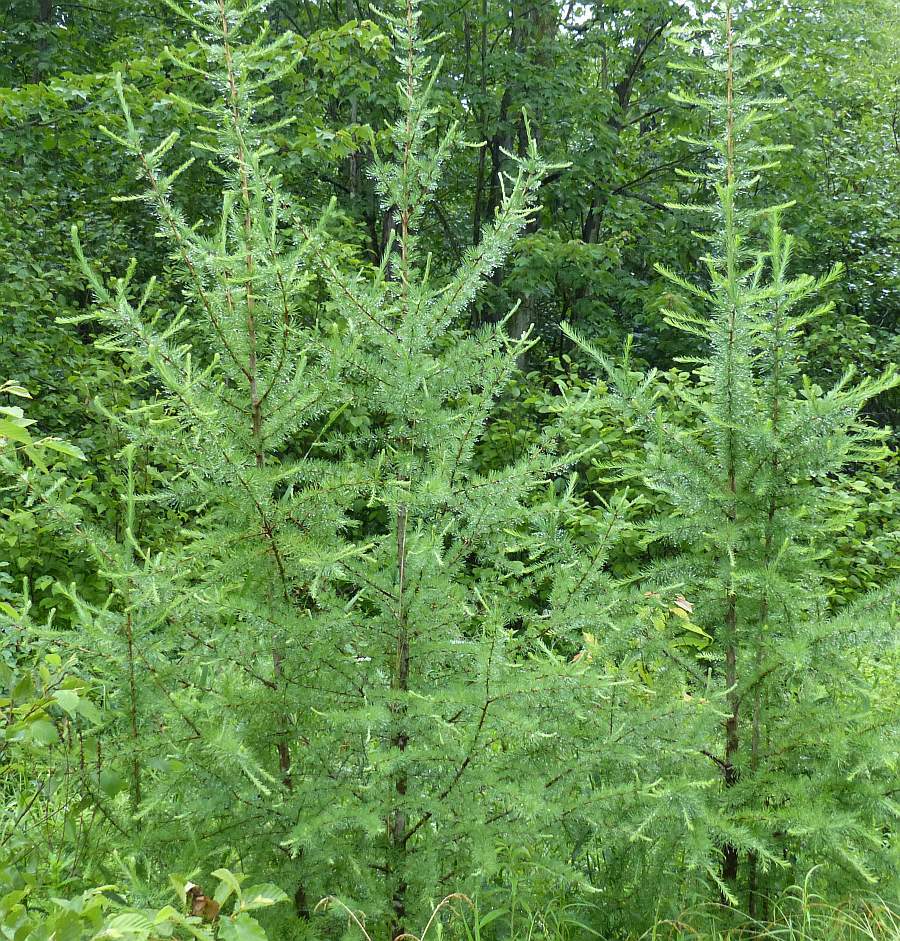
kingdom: Plantae
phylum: Tracheophyta
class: Pinopsida
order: Pinales
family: Pinaceae
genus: Larix
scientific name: Larix laricina
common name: American larch
